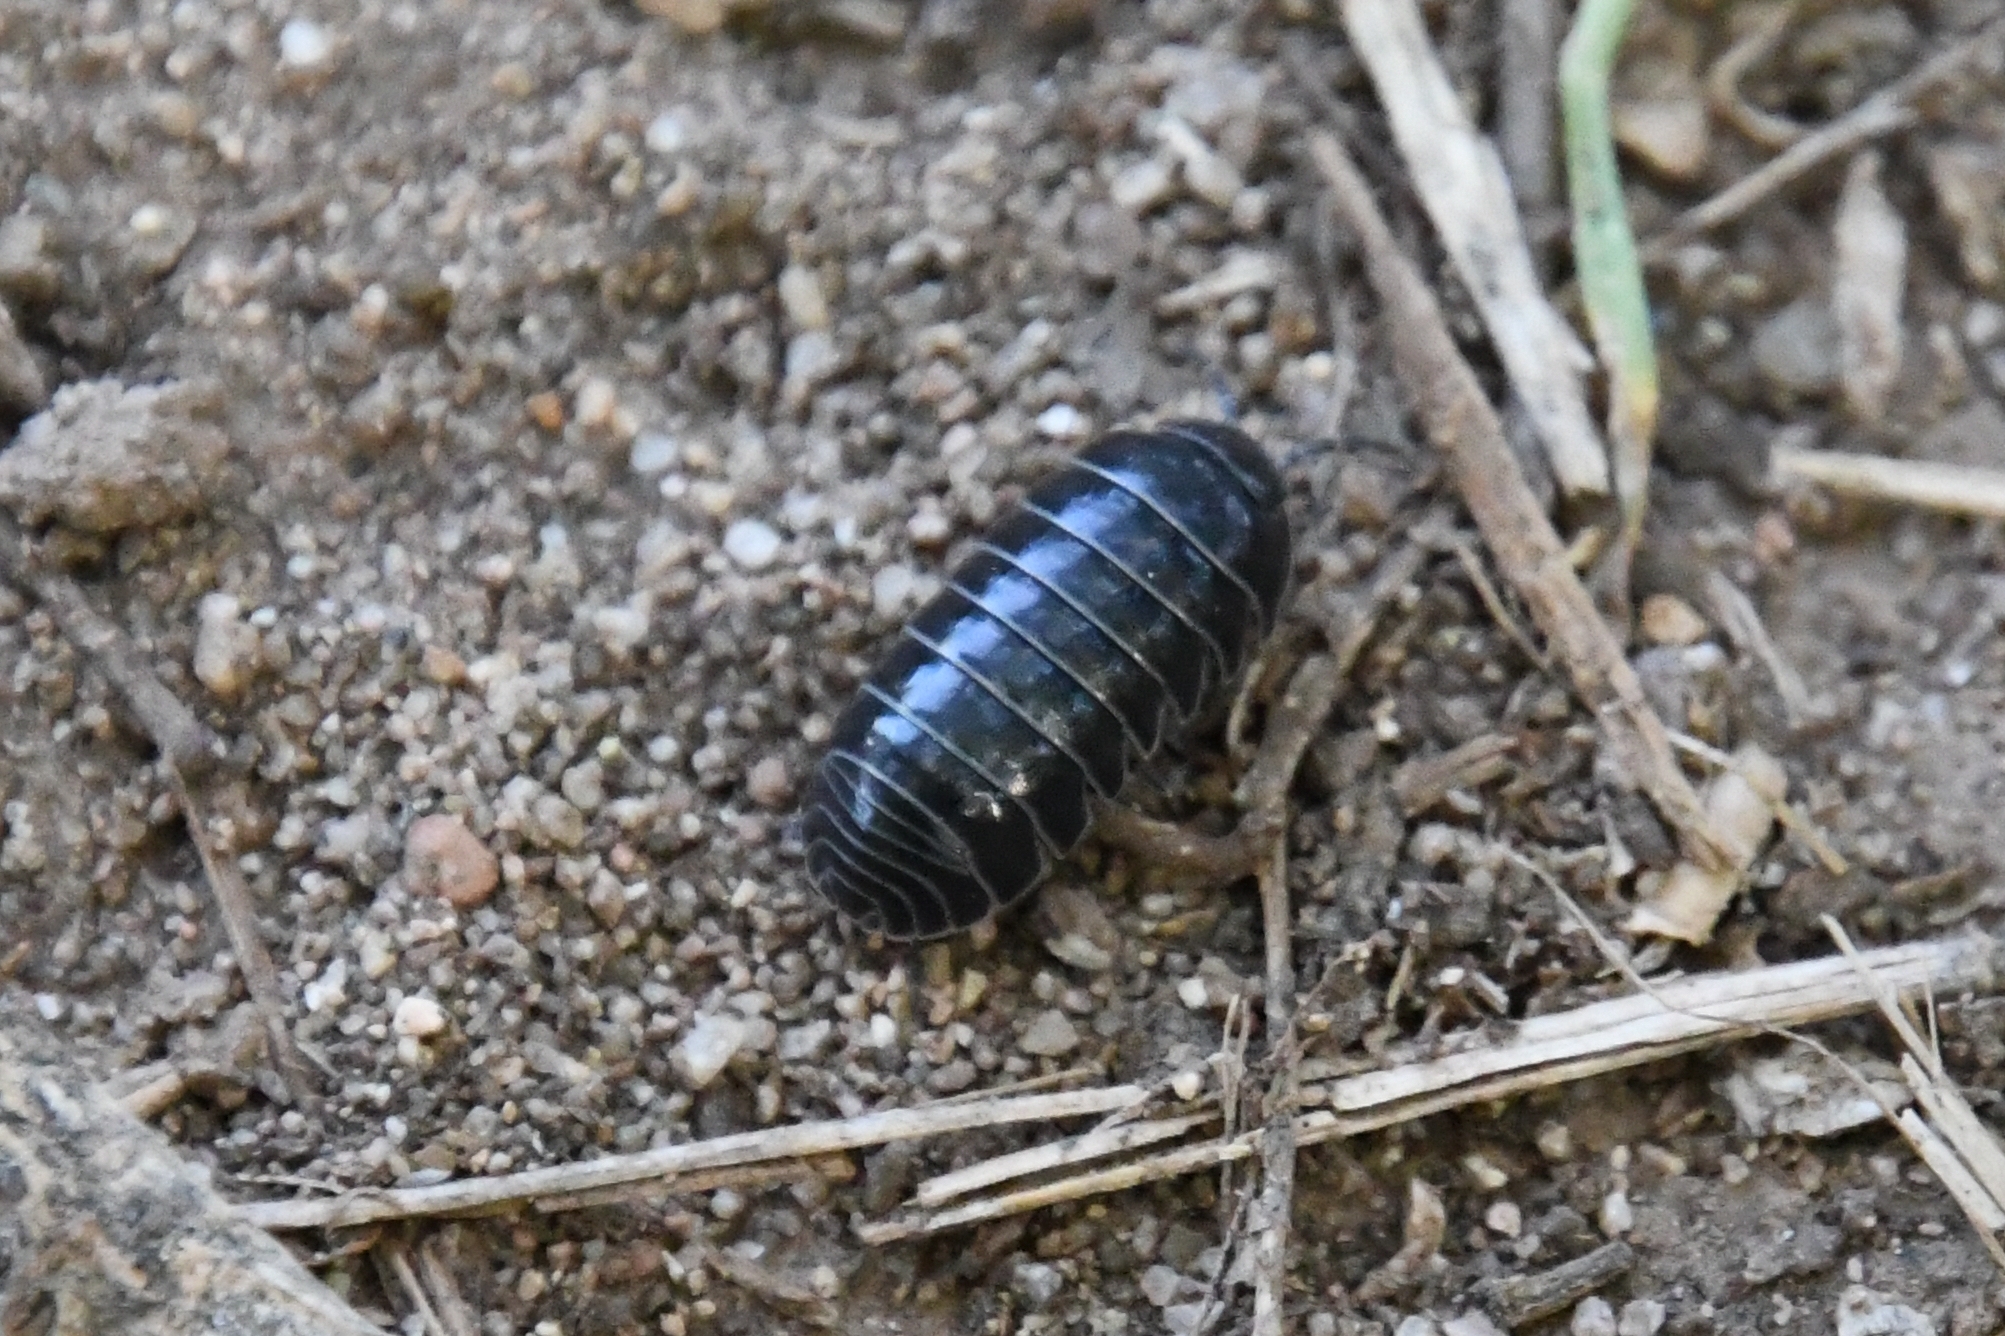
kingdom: Animalia
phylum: Arthropoda
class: Malacostraca
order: Isopoda
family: Armadillidiidae
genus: Armadillidium
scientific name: Armadillidium vulgare
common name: Common pill woodlouse
